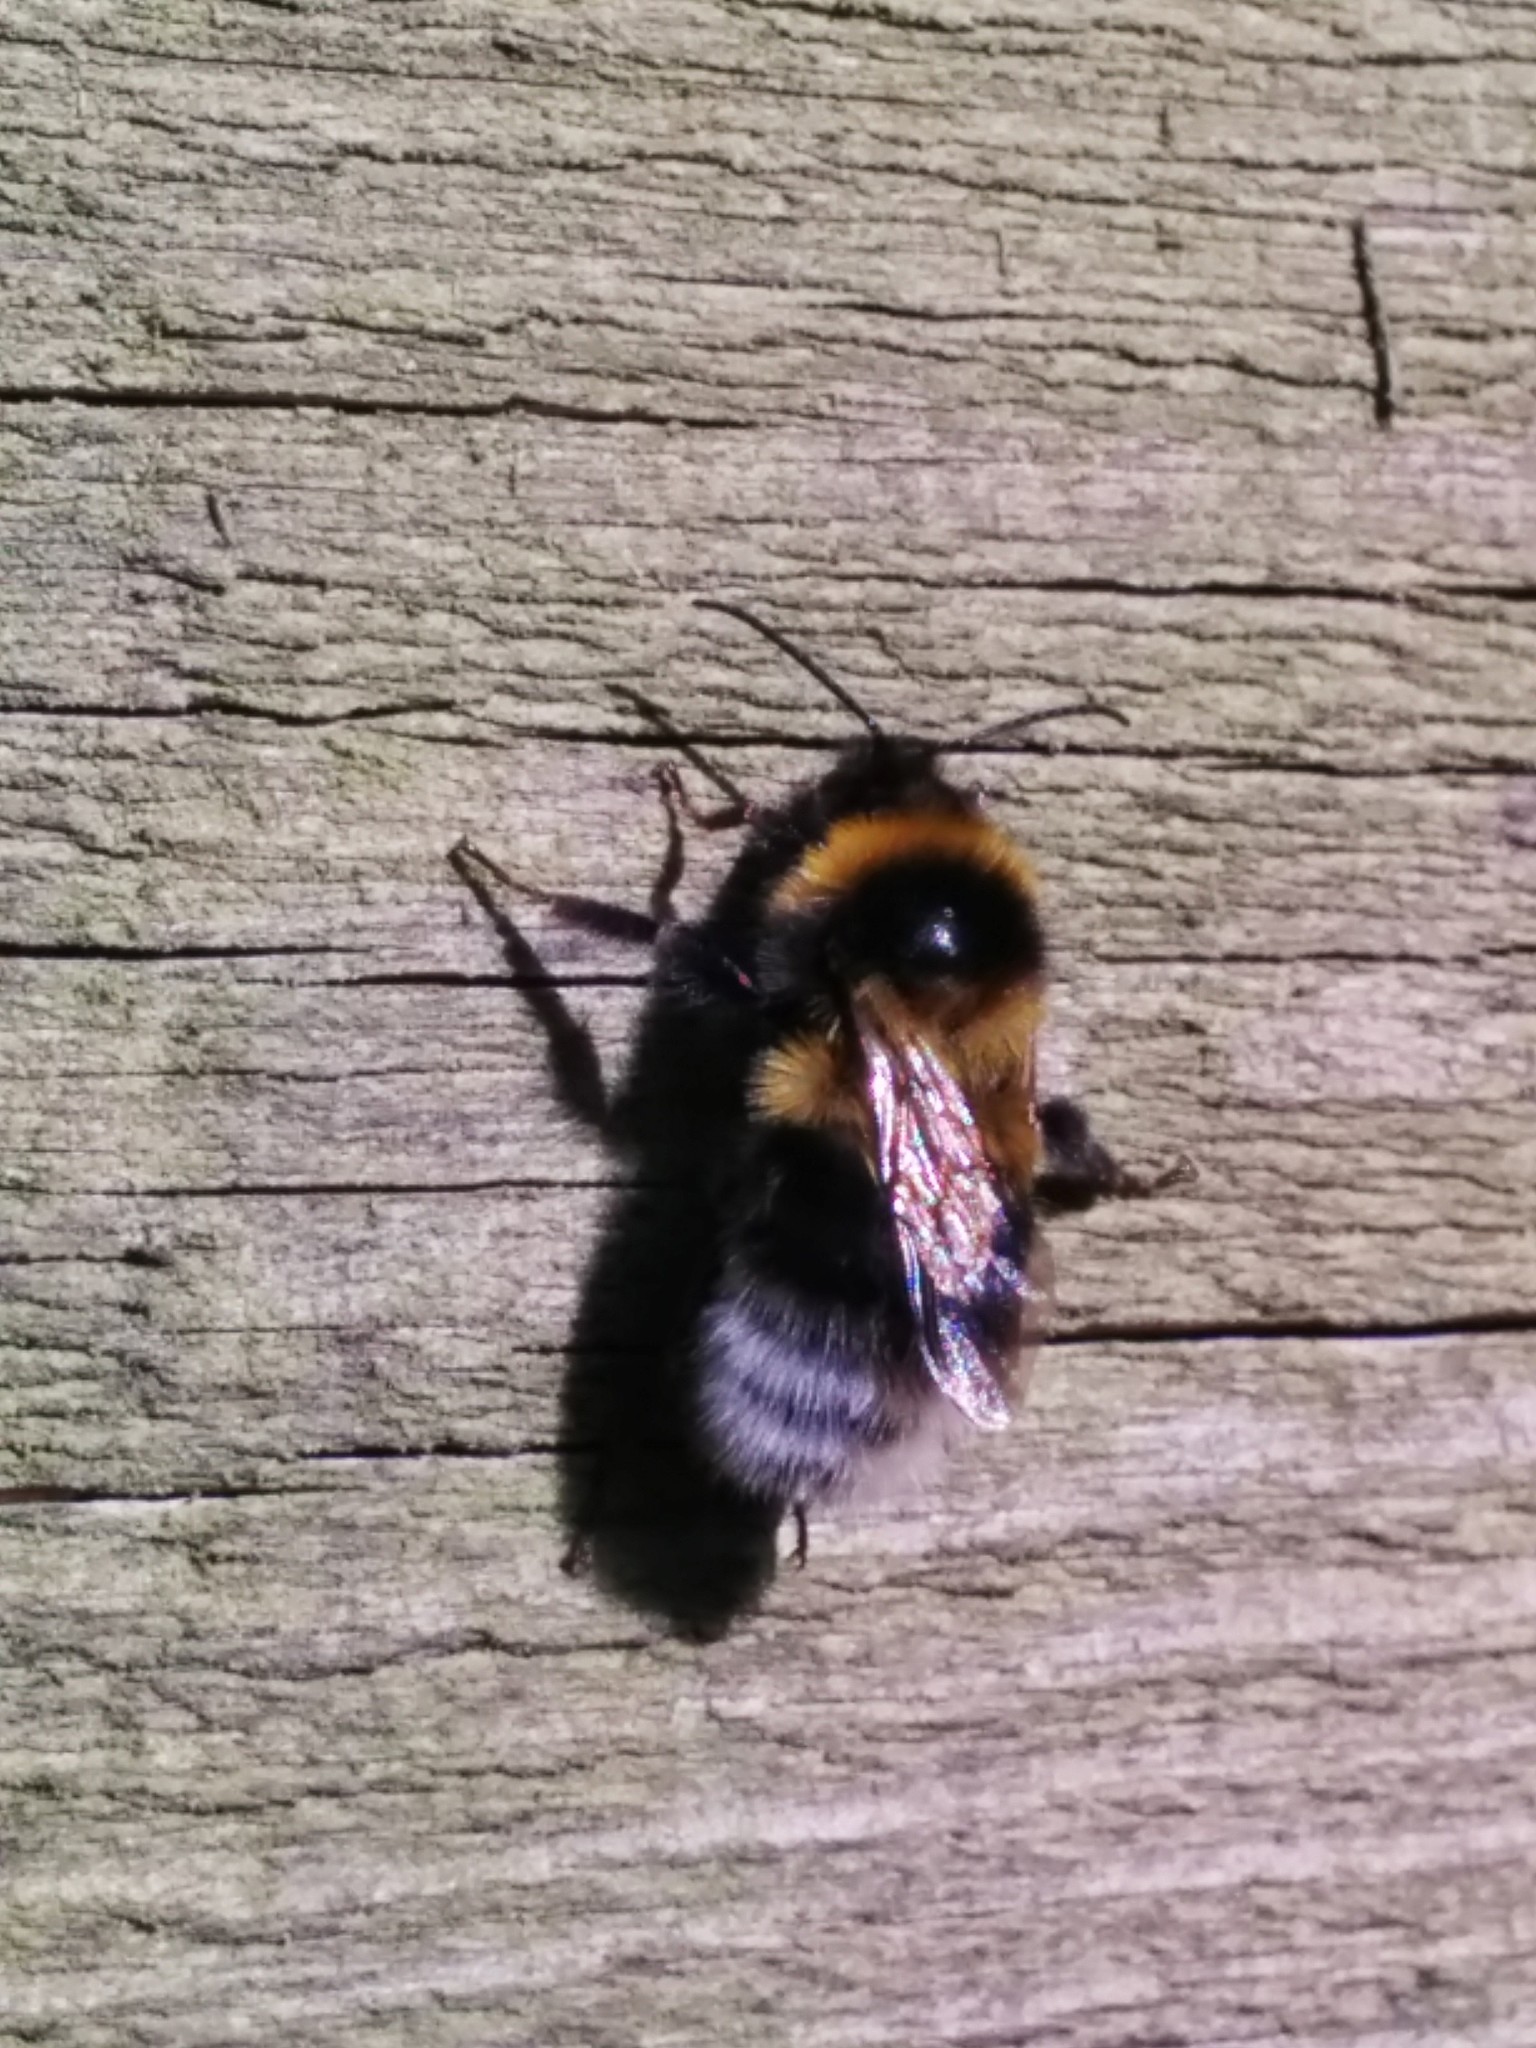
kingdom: Animalia
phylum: Arthropoda
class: Insecta
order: Hymenoptera
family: Apidae
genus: Bombus
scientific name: Bombus hortorum
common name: Garden bumblebee
